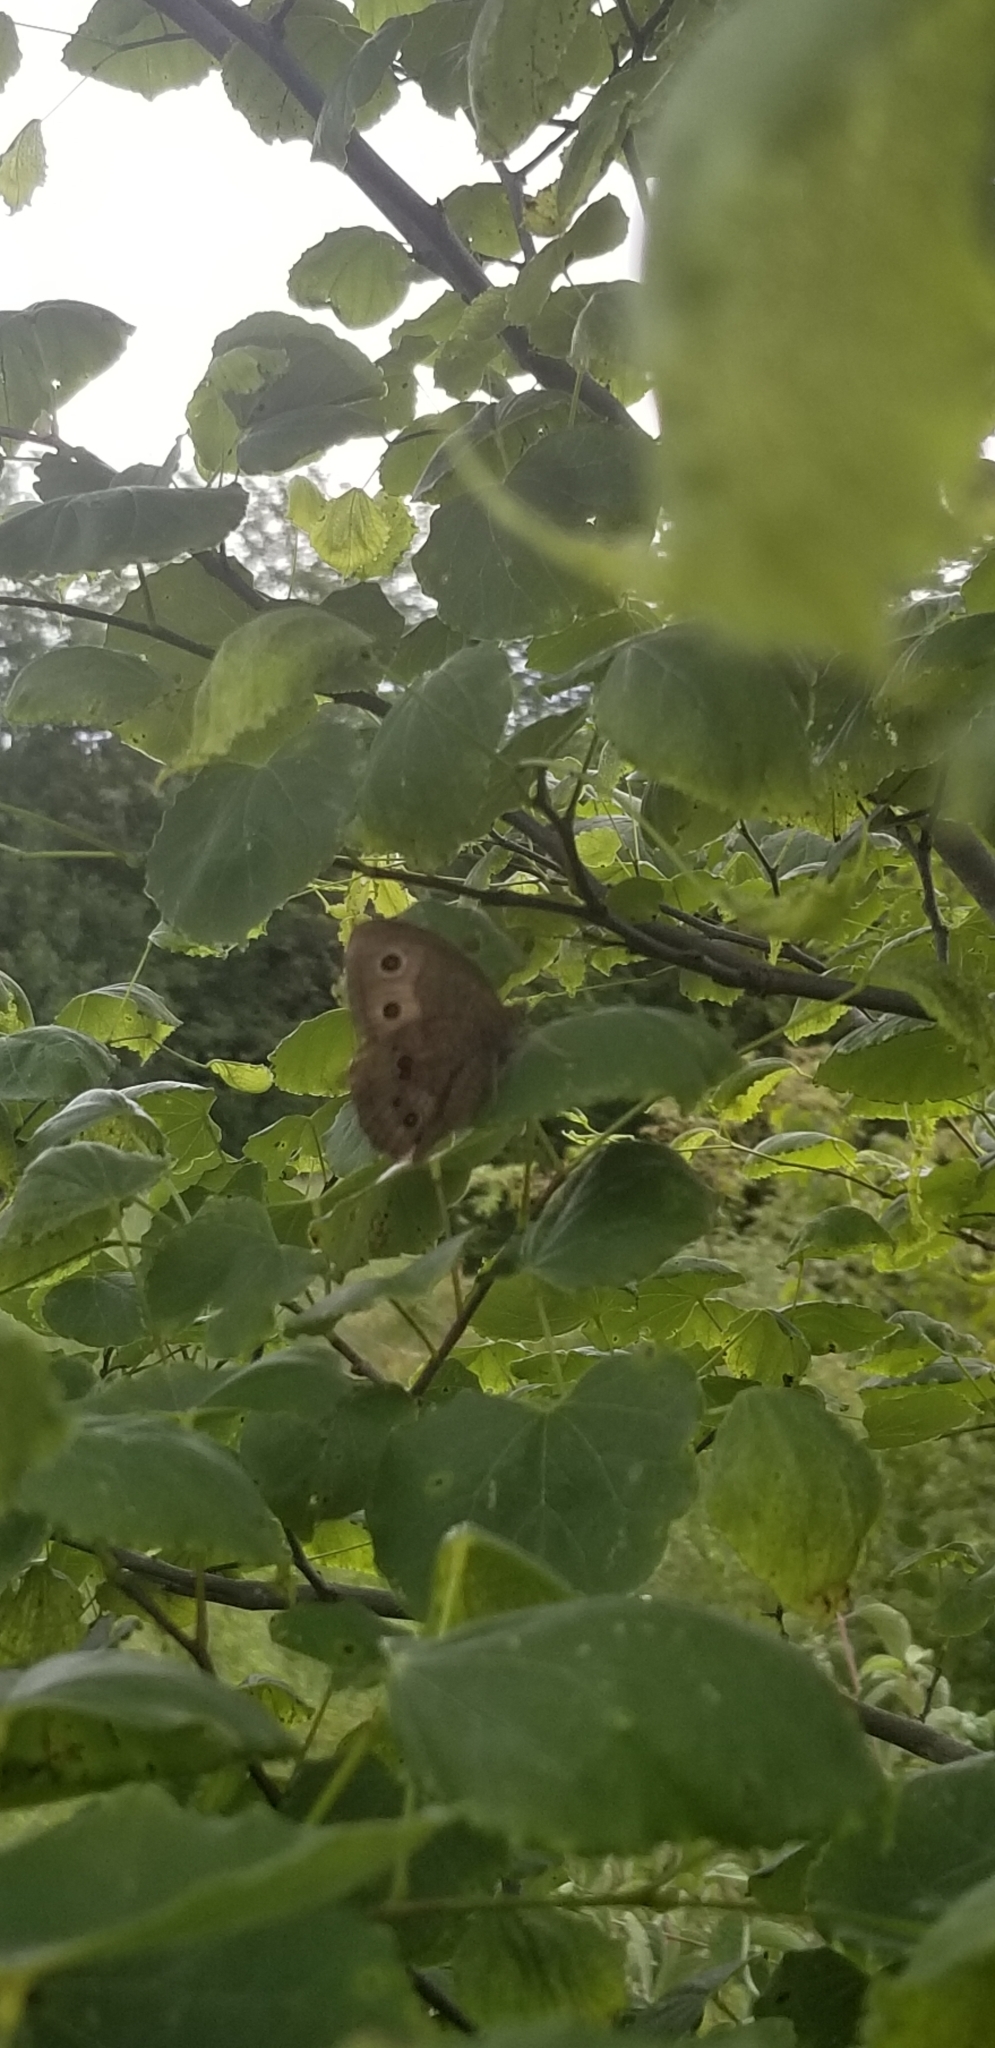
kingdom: Animalia
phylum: Arthropoda
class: Insecta
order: Lepidoptera
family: Nymphalidae
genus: Cercyonis
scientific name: Cercyonis pegala
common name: Common wood-nymph
